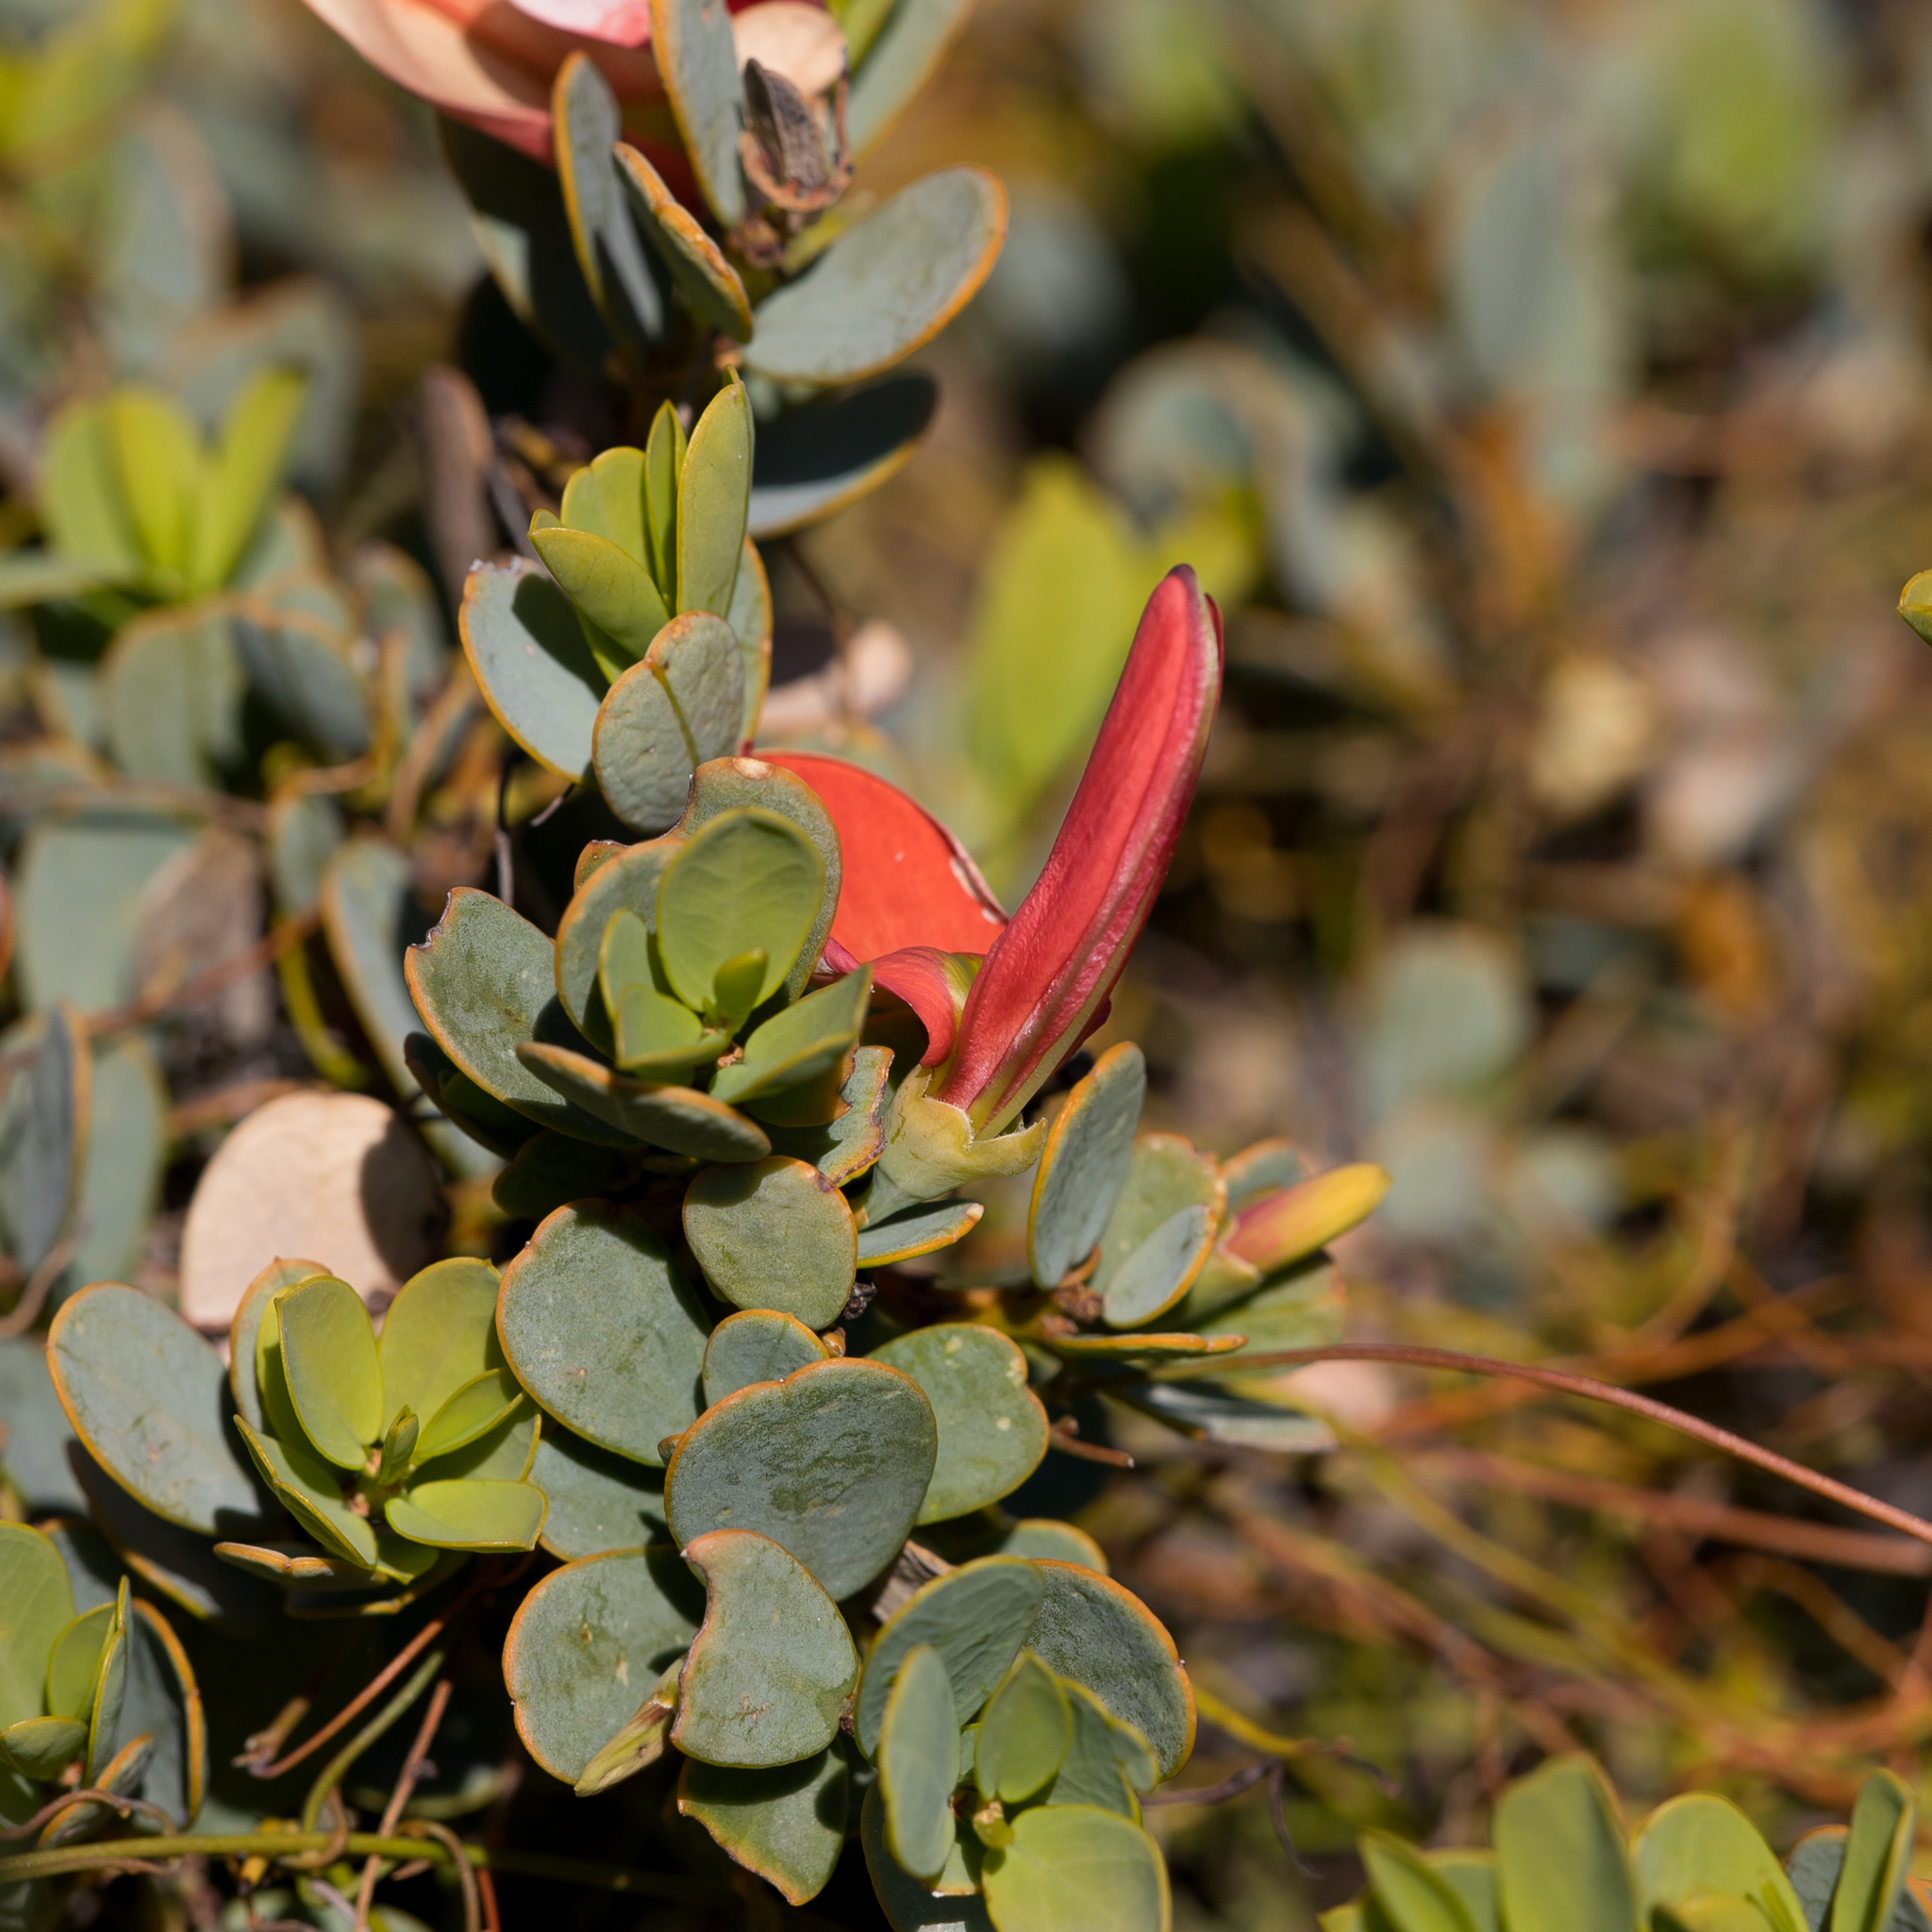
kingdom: Plantae
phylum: Tracheophyta
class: Magnoliopsida
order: Fabales
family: Fabaceae
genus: Templetonia
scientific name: Templetonia retusa
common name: Cockies'-tongue
